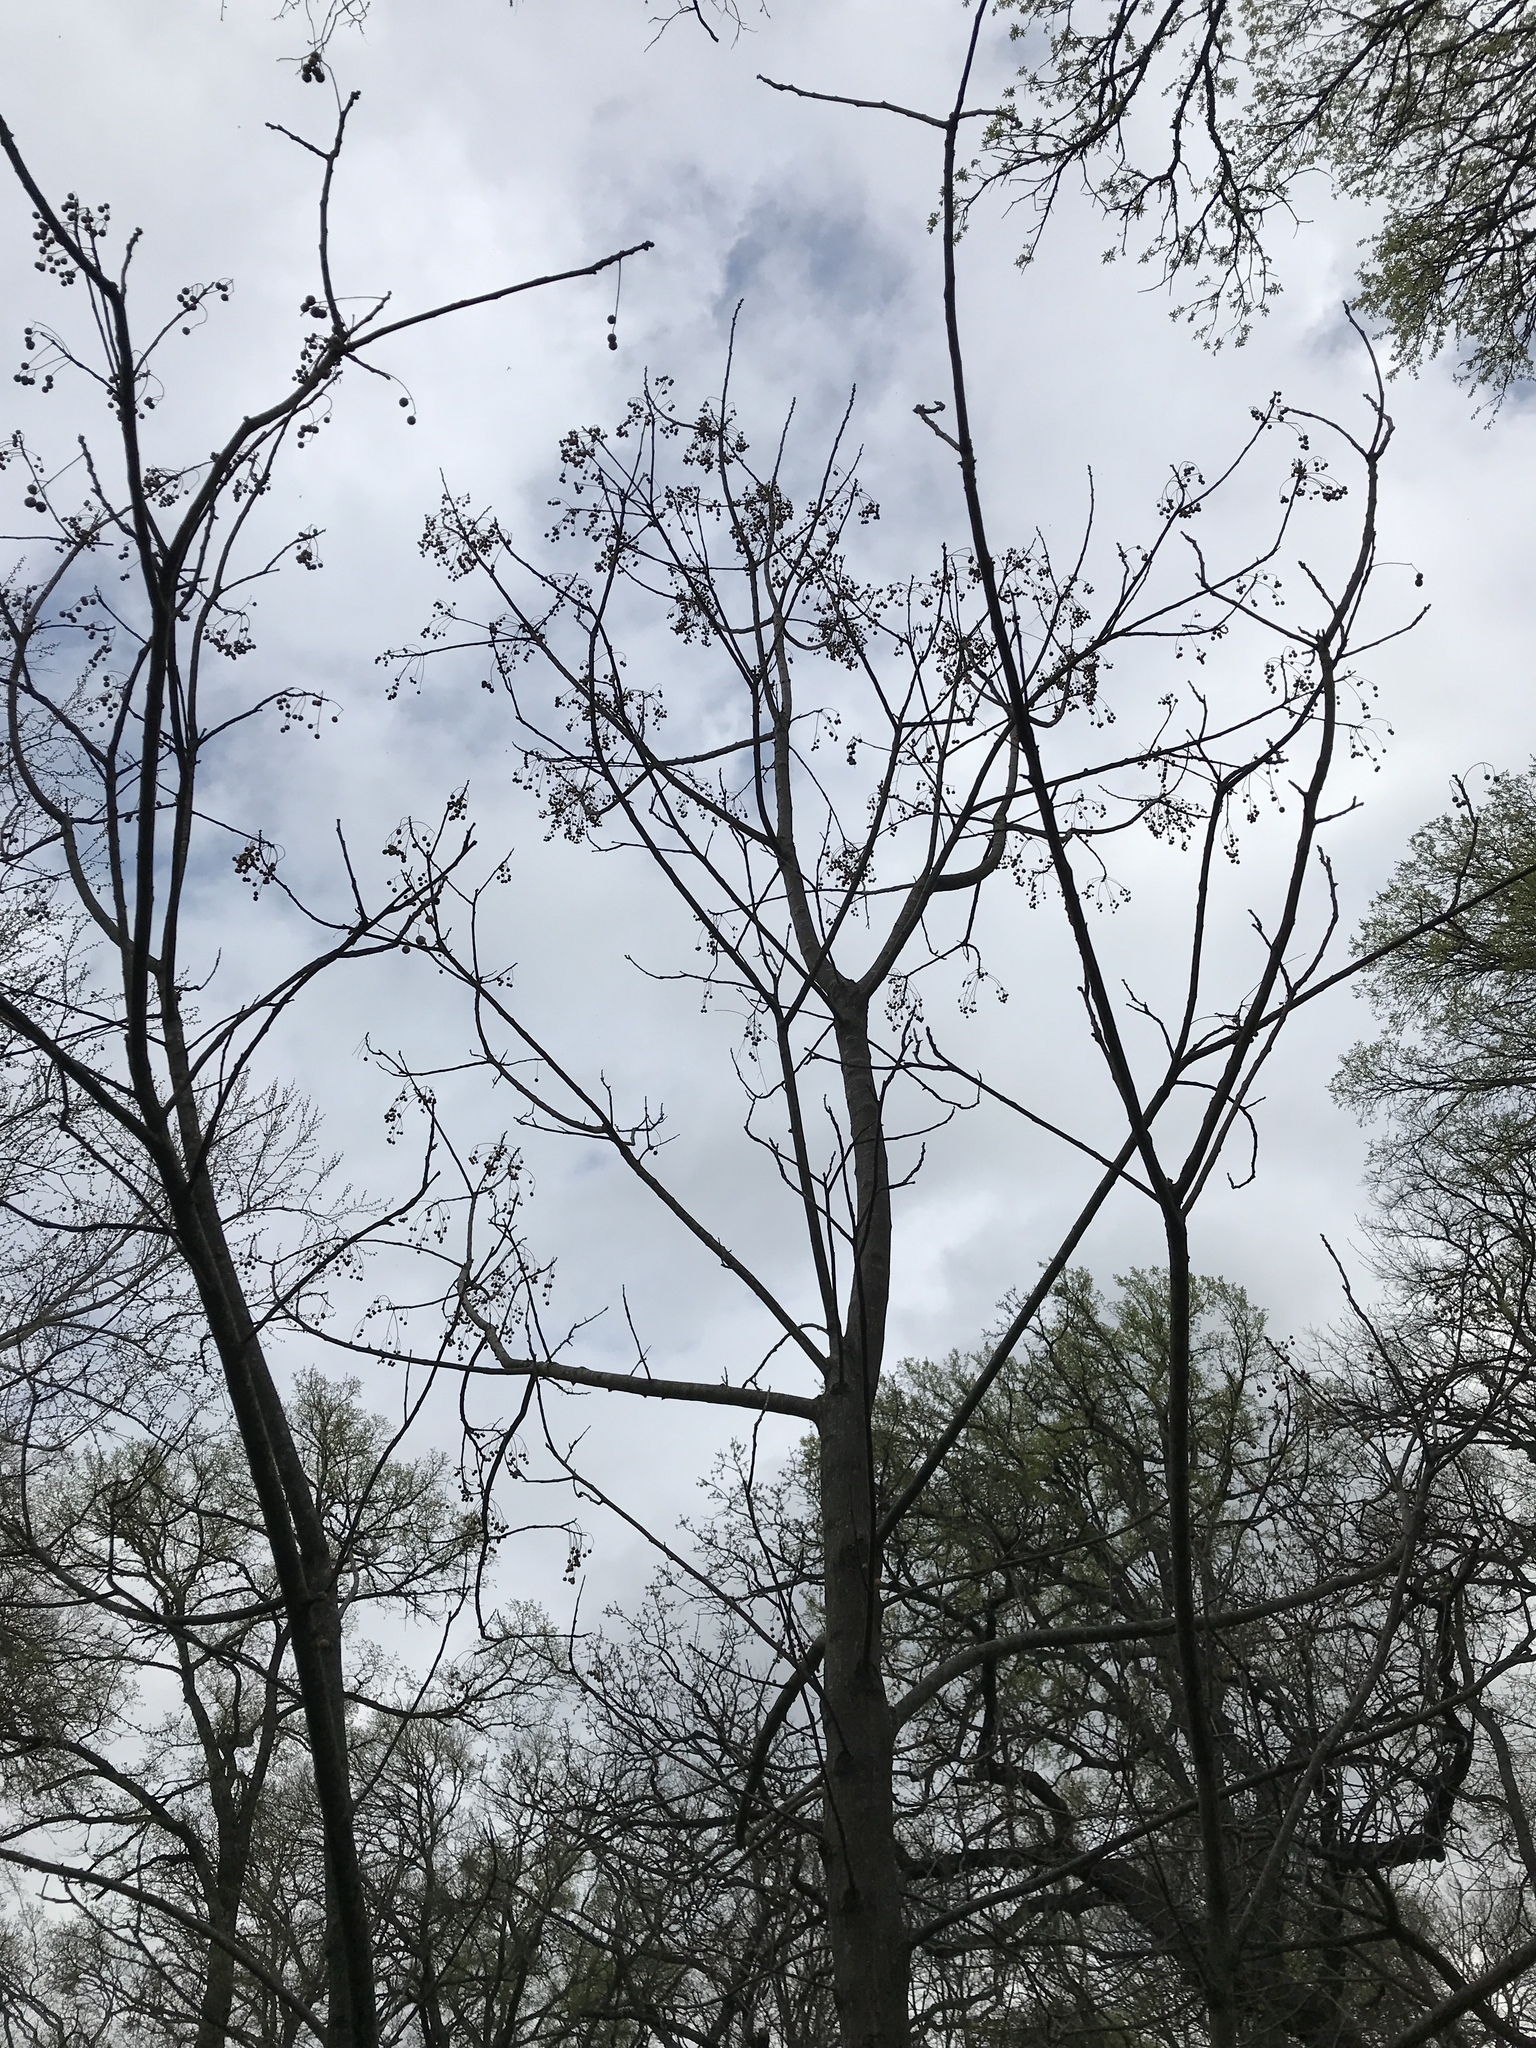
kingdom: Plantae
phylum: Tracheophyta
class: Magnoliopsida
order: Sapindales
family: Meliaceae
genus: Melia
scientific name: Melia azedarach
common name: Chinaberrytree
